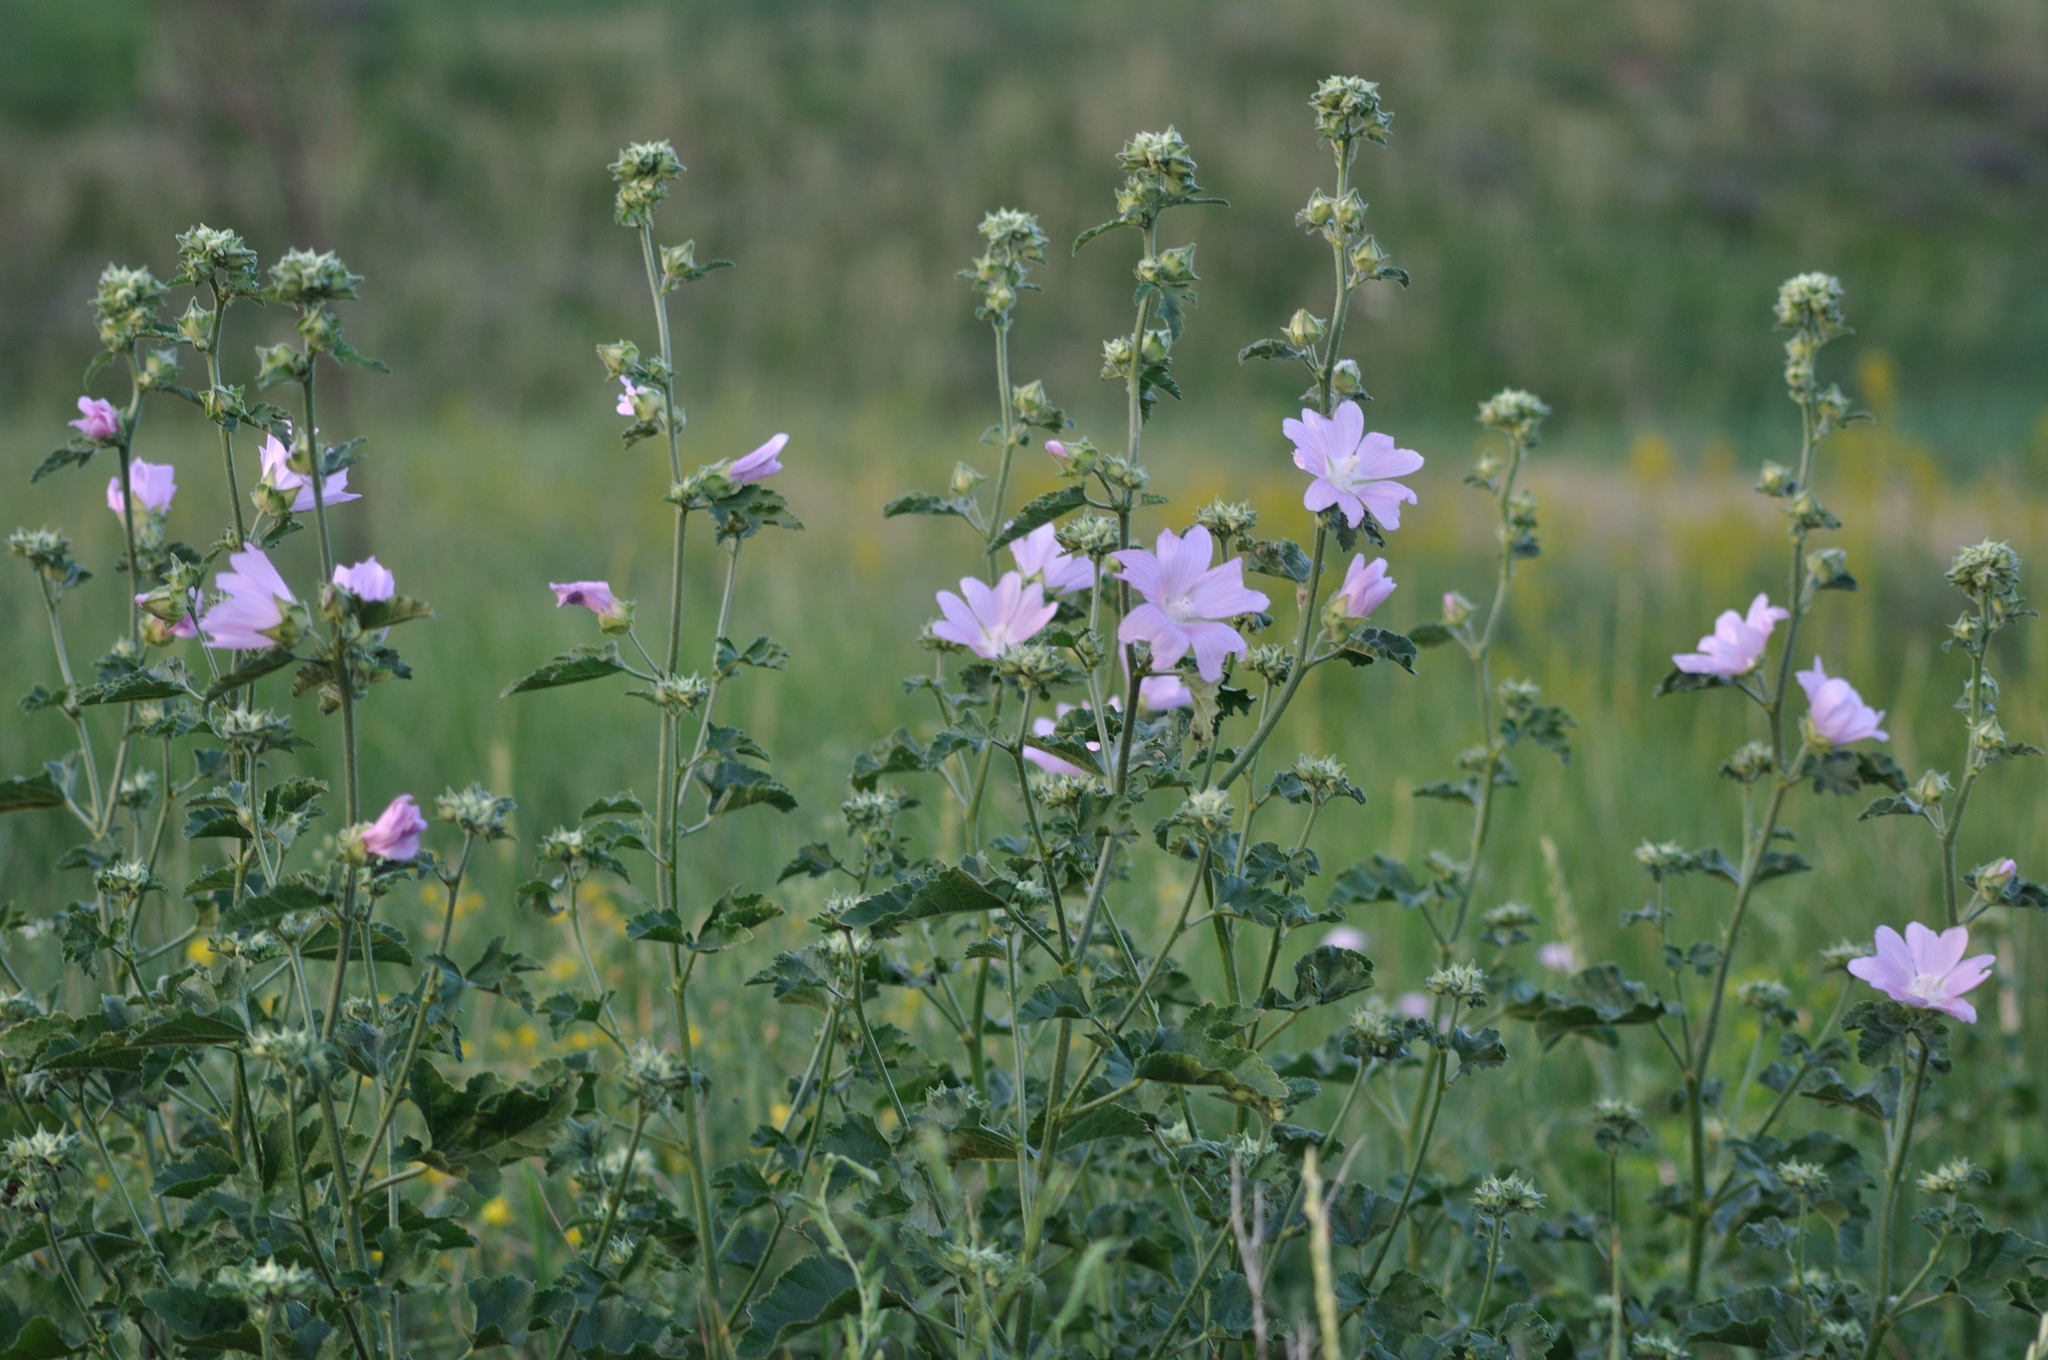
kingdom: Plantae
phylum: Tracheophyta
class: Magnoliopsida
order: Malvales
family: Malvaceae
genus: Malva
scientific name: Malva thuringiaca
